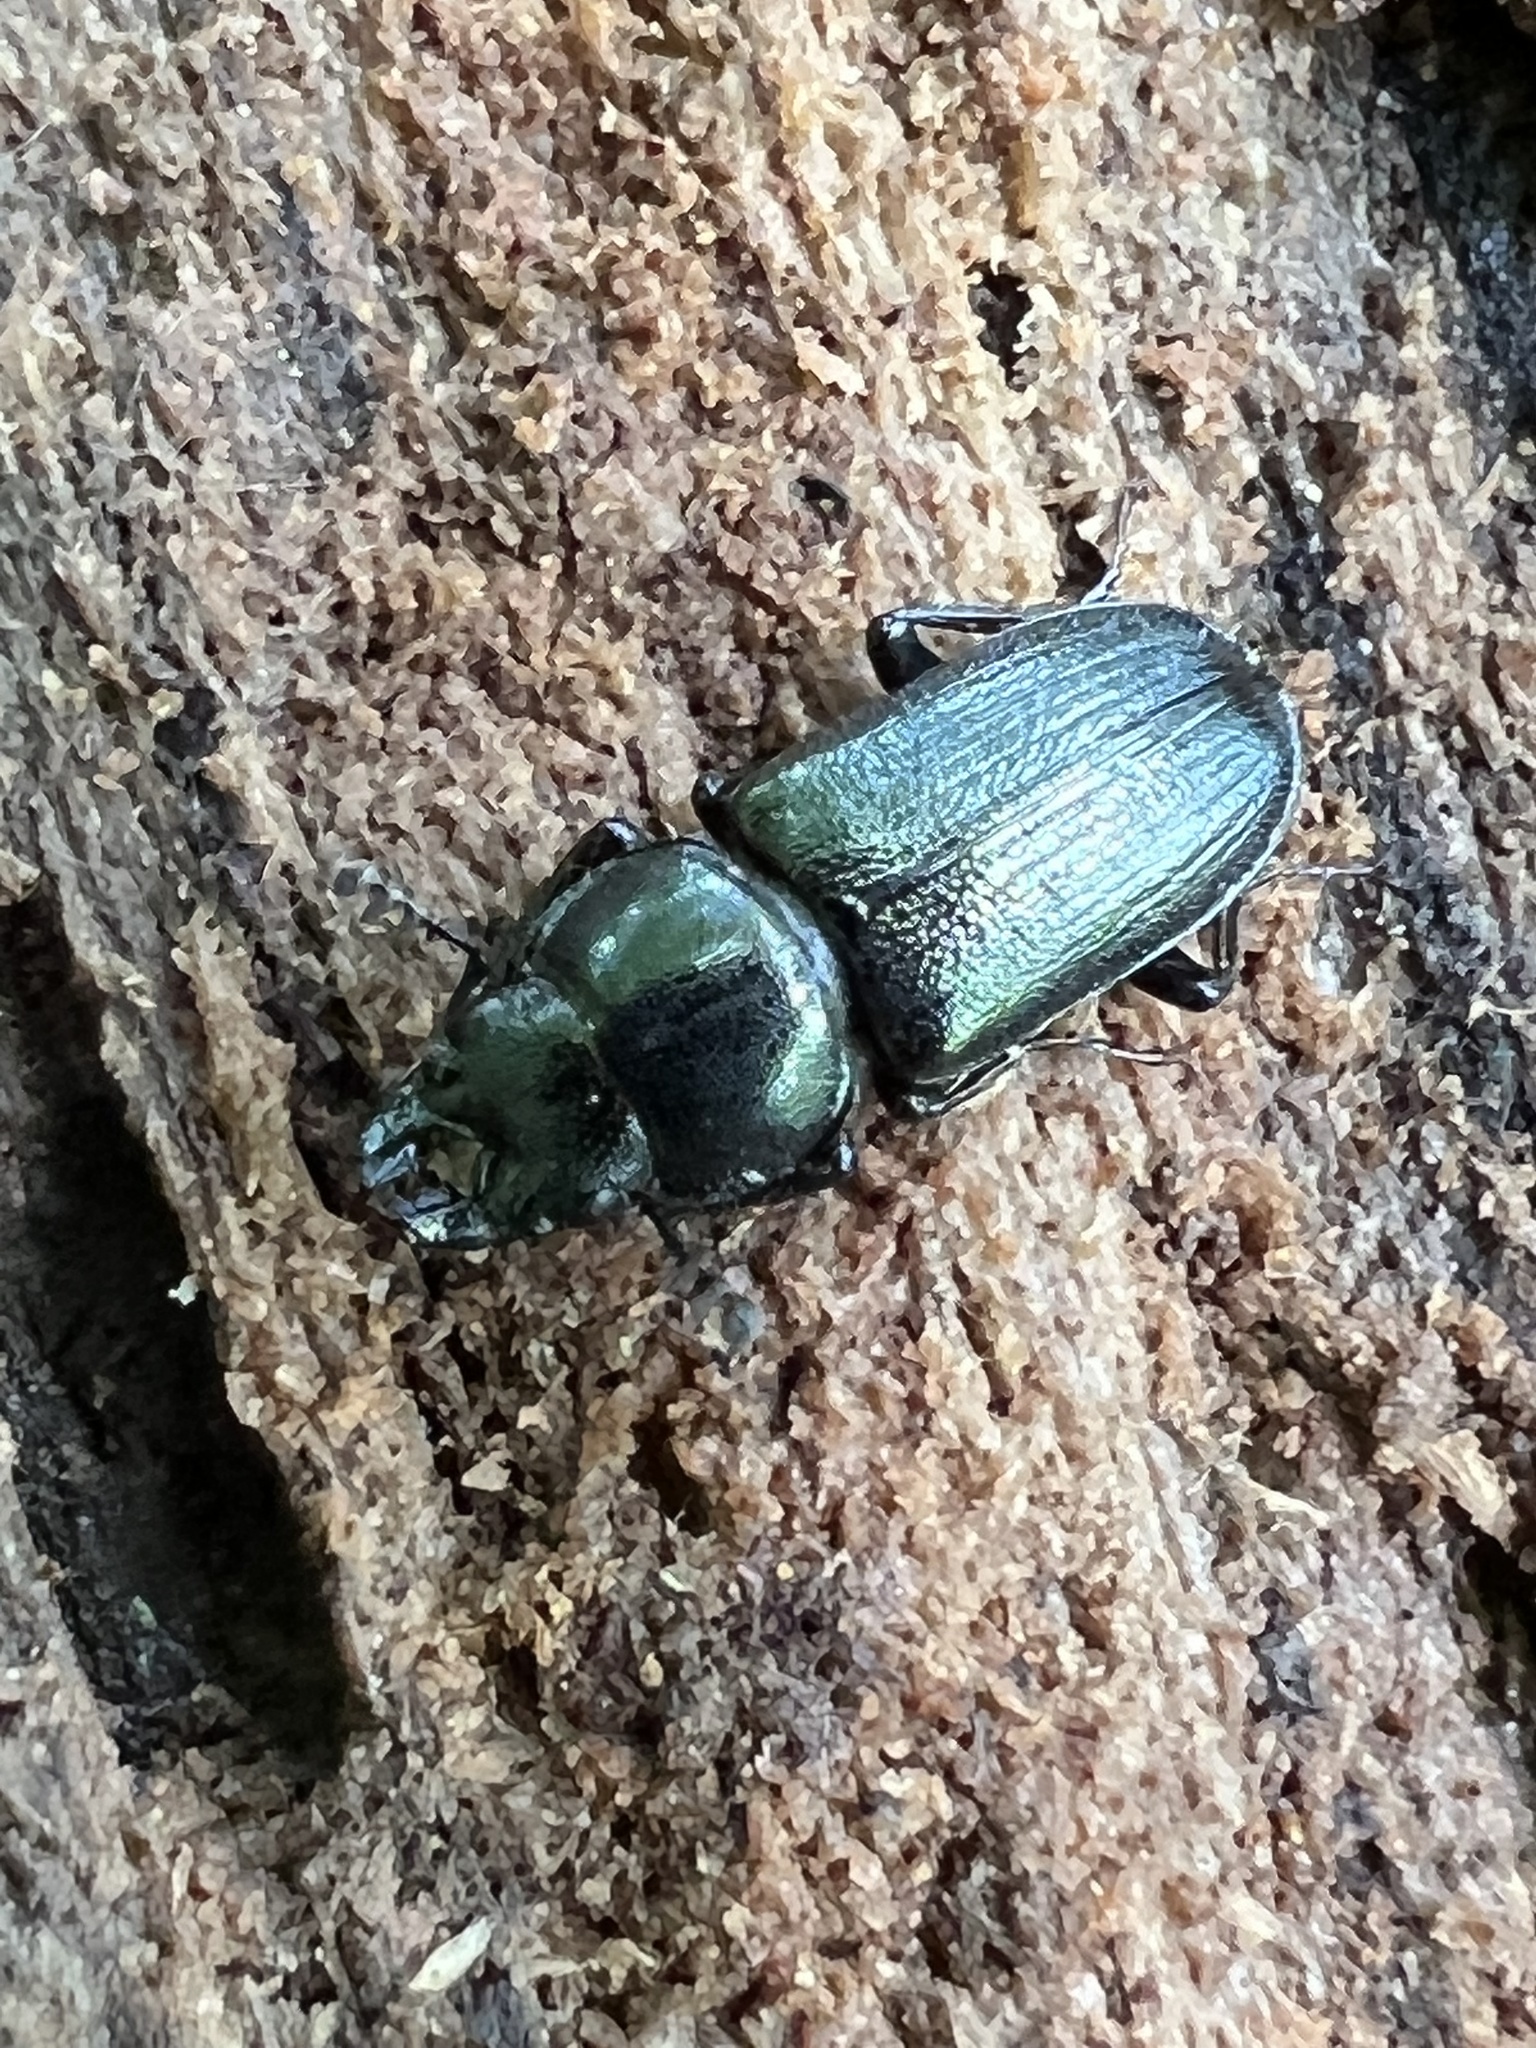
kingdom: Animalia
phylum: Arthropoda
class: Insecta
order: Coleoptera
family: Lucanidae
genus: Platycerus
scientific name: Platycerus quercus
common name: Oak stag beetle
